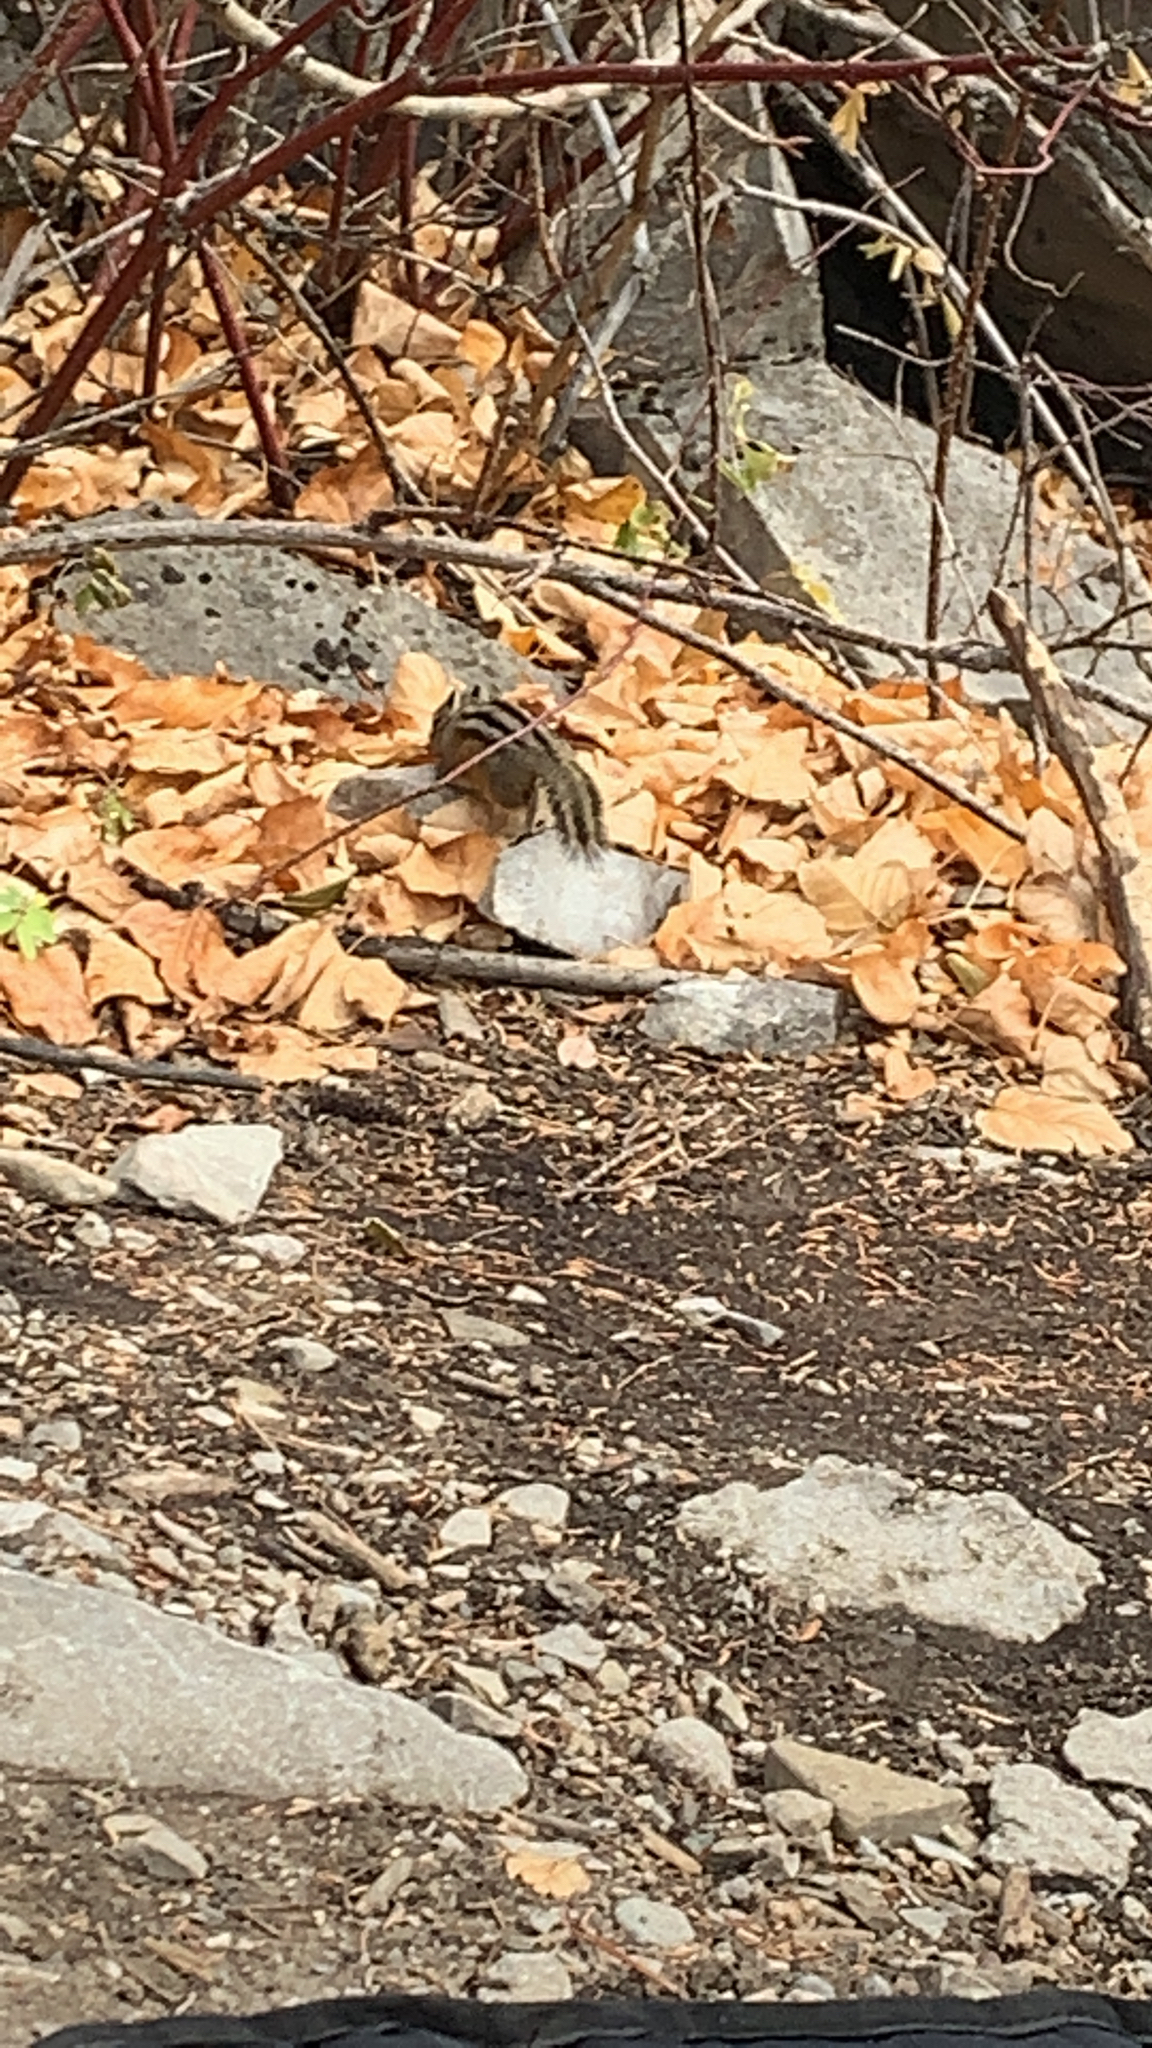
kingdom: Animalia
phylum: Chordata
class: Mammalia
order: Rodentia
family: Sciuridae
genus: Neotamias
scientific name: Neotamias
